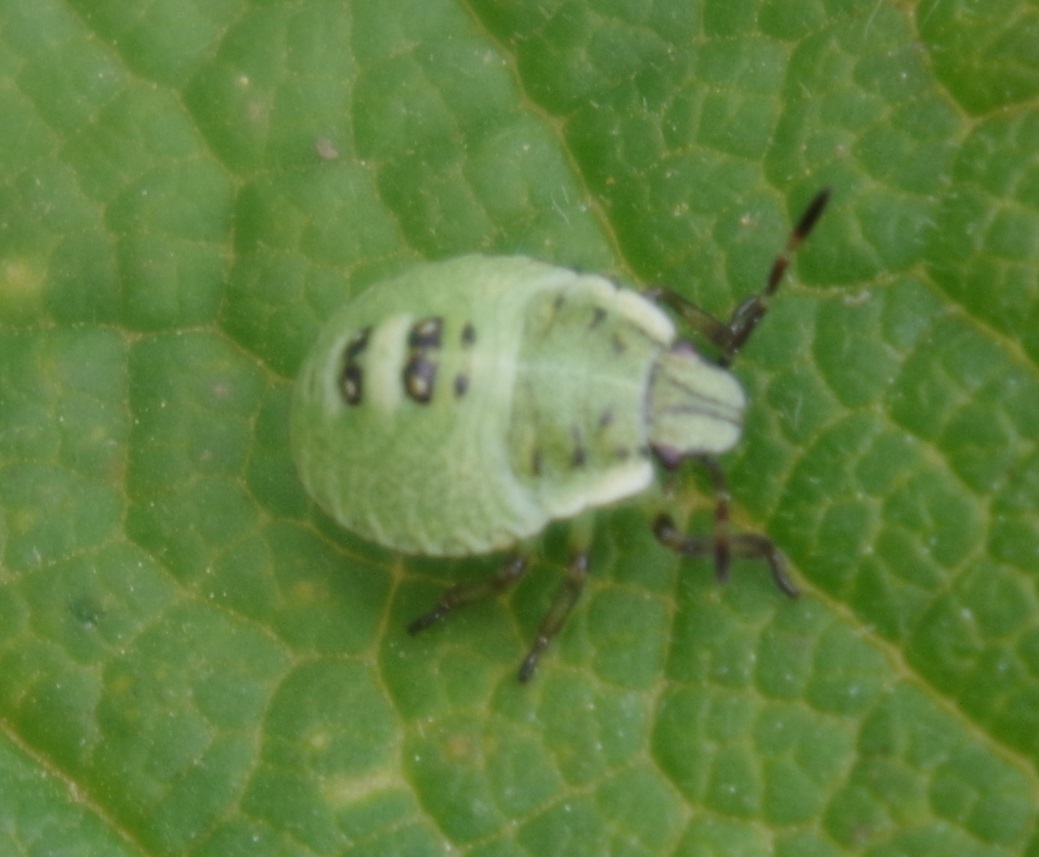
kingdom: Animalia
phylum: Arthropoda
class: Insecta
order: Hemiptera
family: Pentatomidae
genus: Palomena
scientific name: Palomena prasina
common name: Green shieldbug
